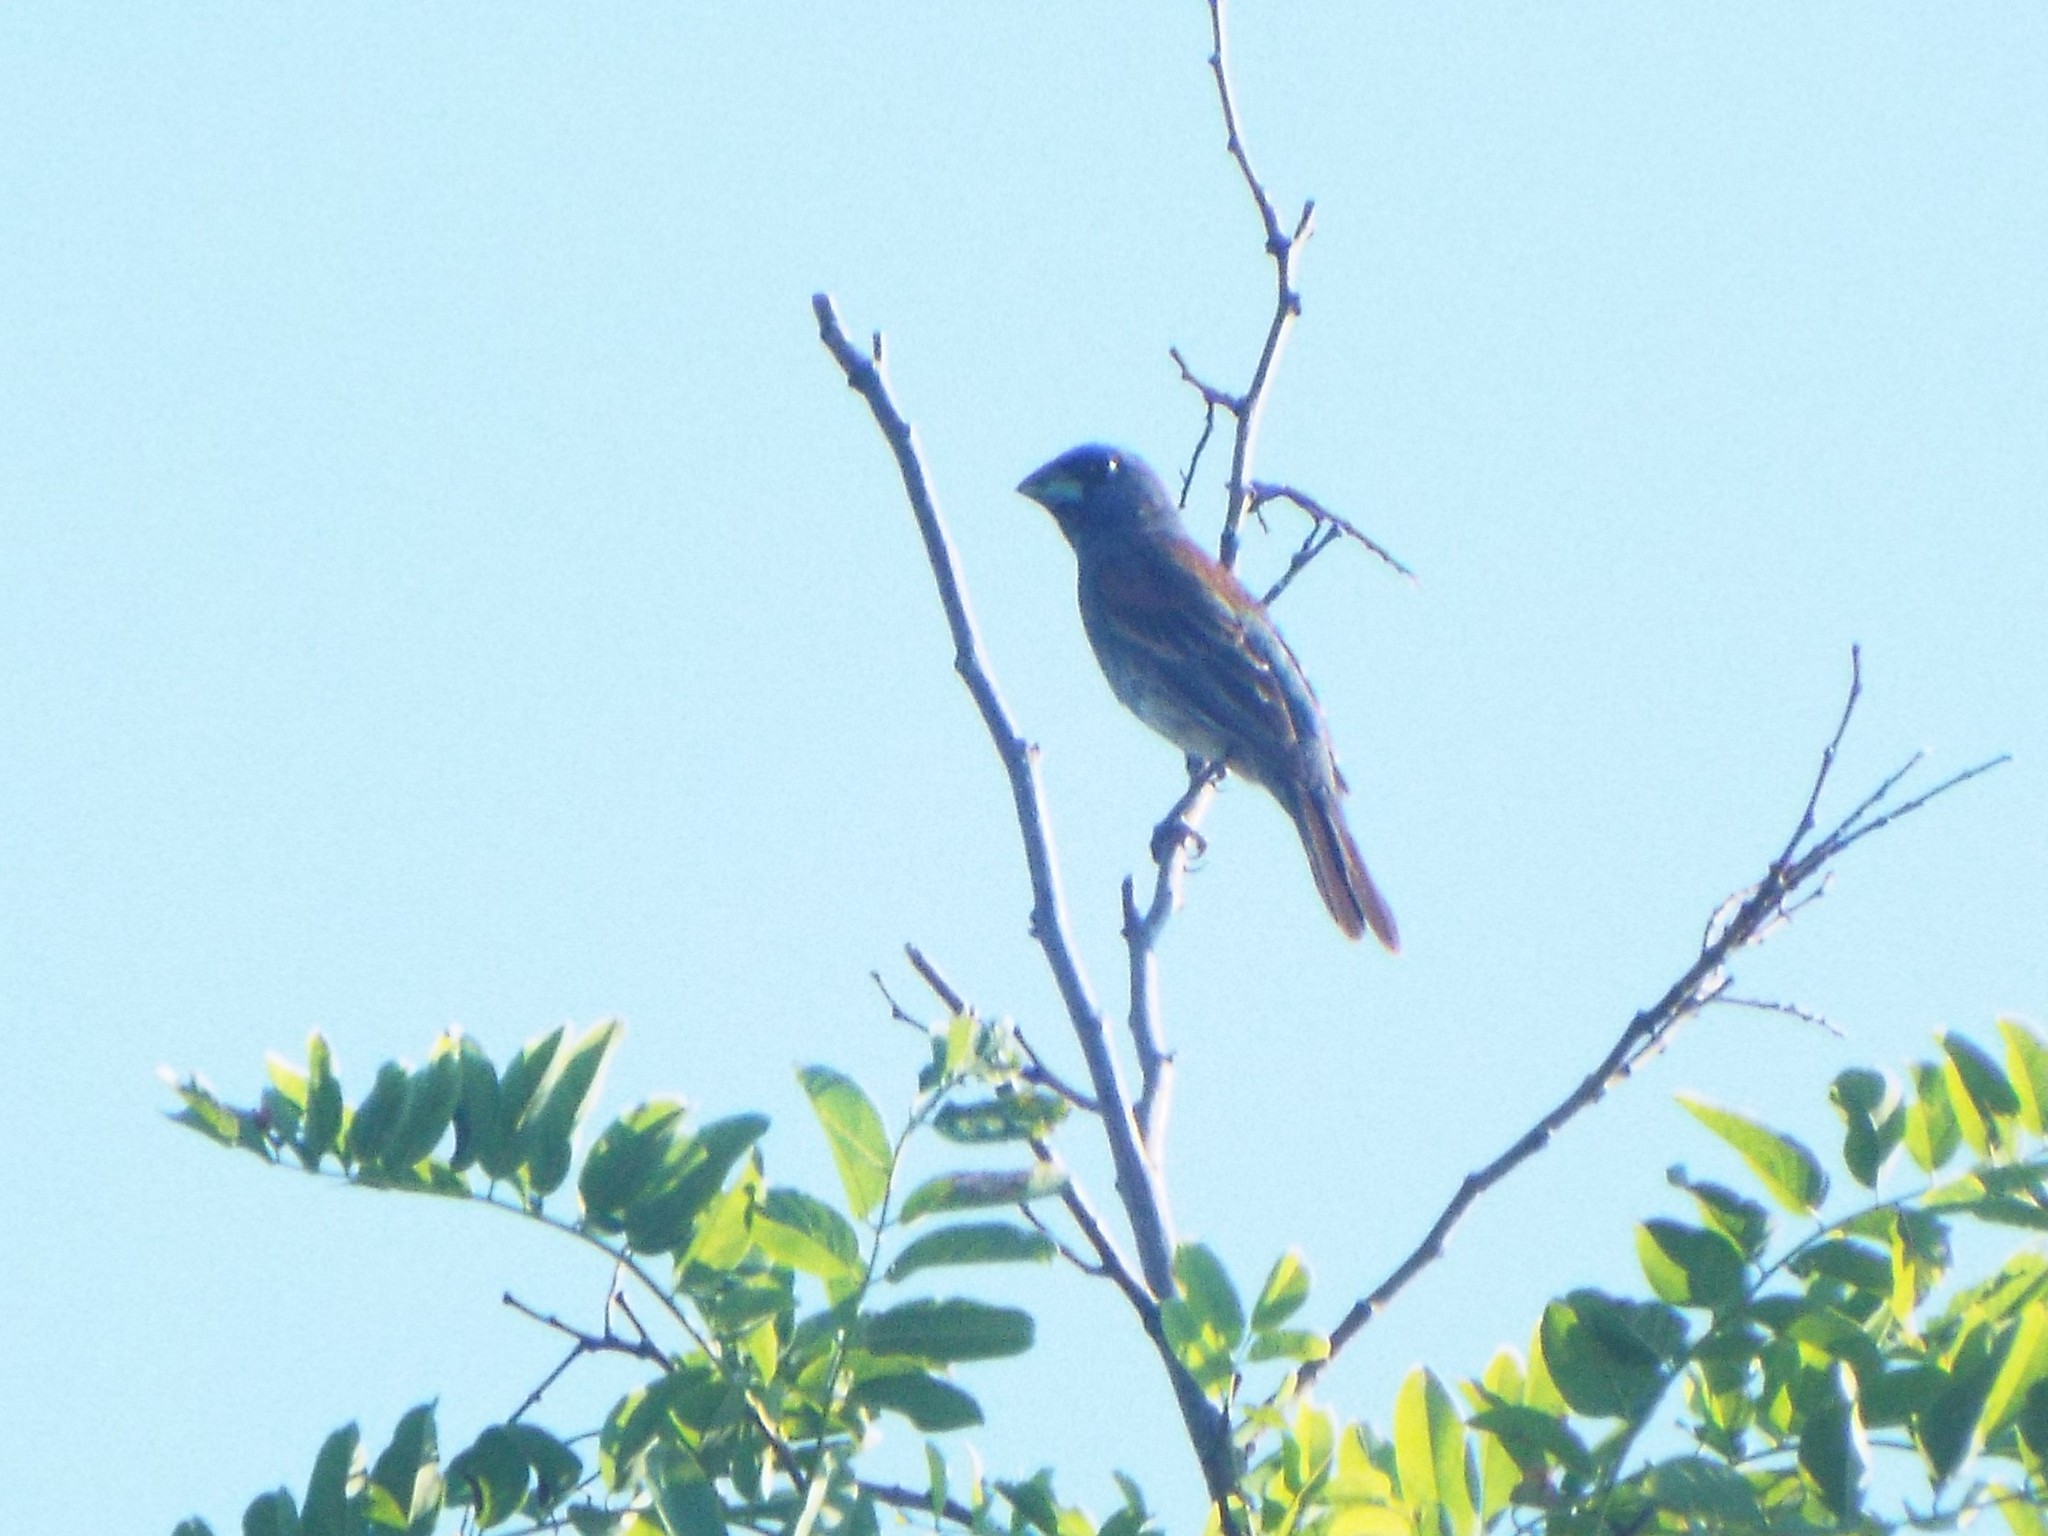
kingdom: Animalia
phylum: Chordata
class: Aves
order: Passeriformes
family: Cardinalidae
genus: Passerina
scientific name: Passerina caerulea
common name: Blue grosbeak
